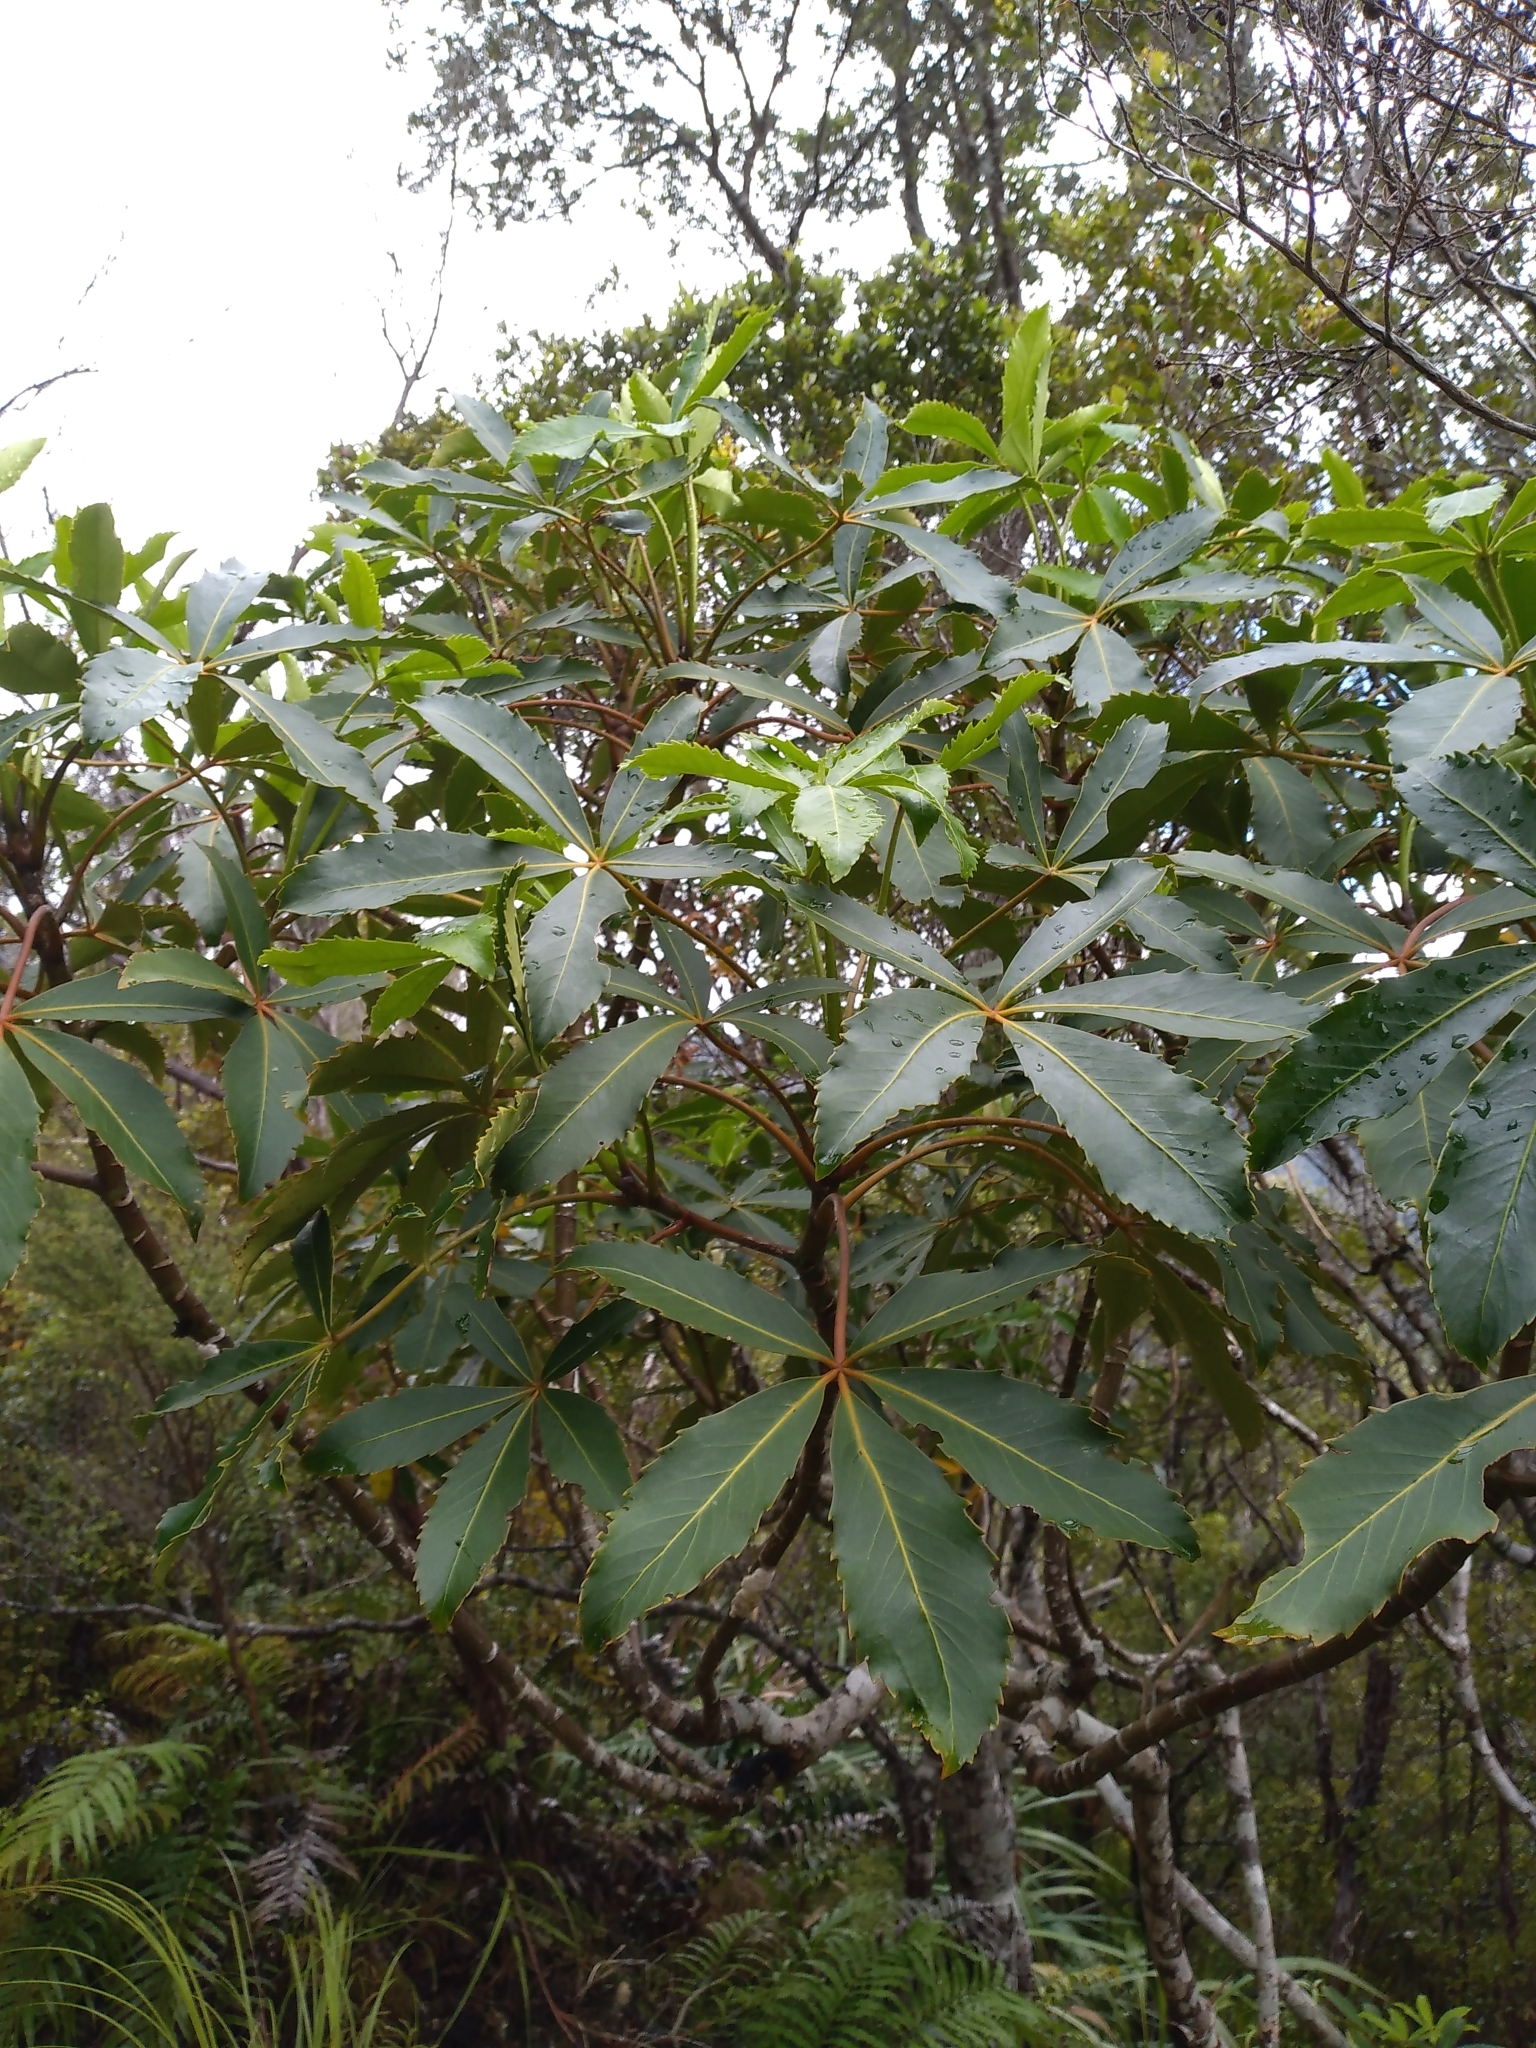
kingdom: Plantae
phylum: Tracheophyta
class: Magnoliopsida
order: Apiales
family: Araliaceae
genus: Neopanax
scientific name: Neopanax colensoi
